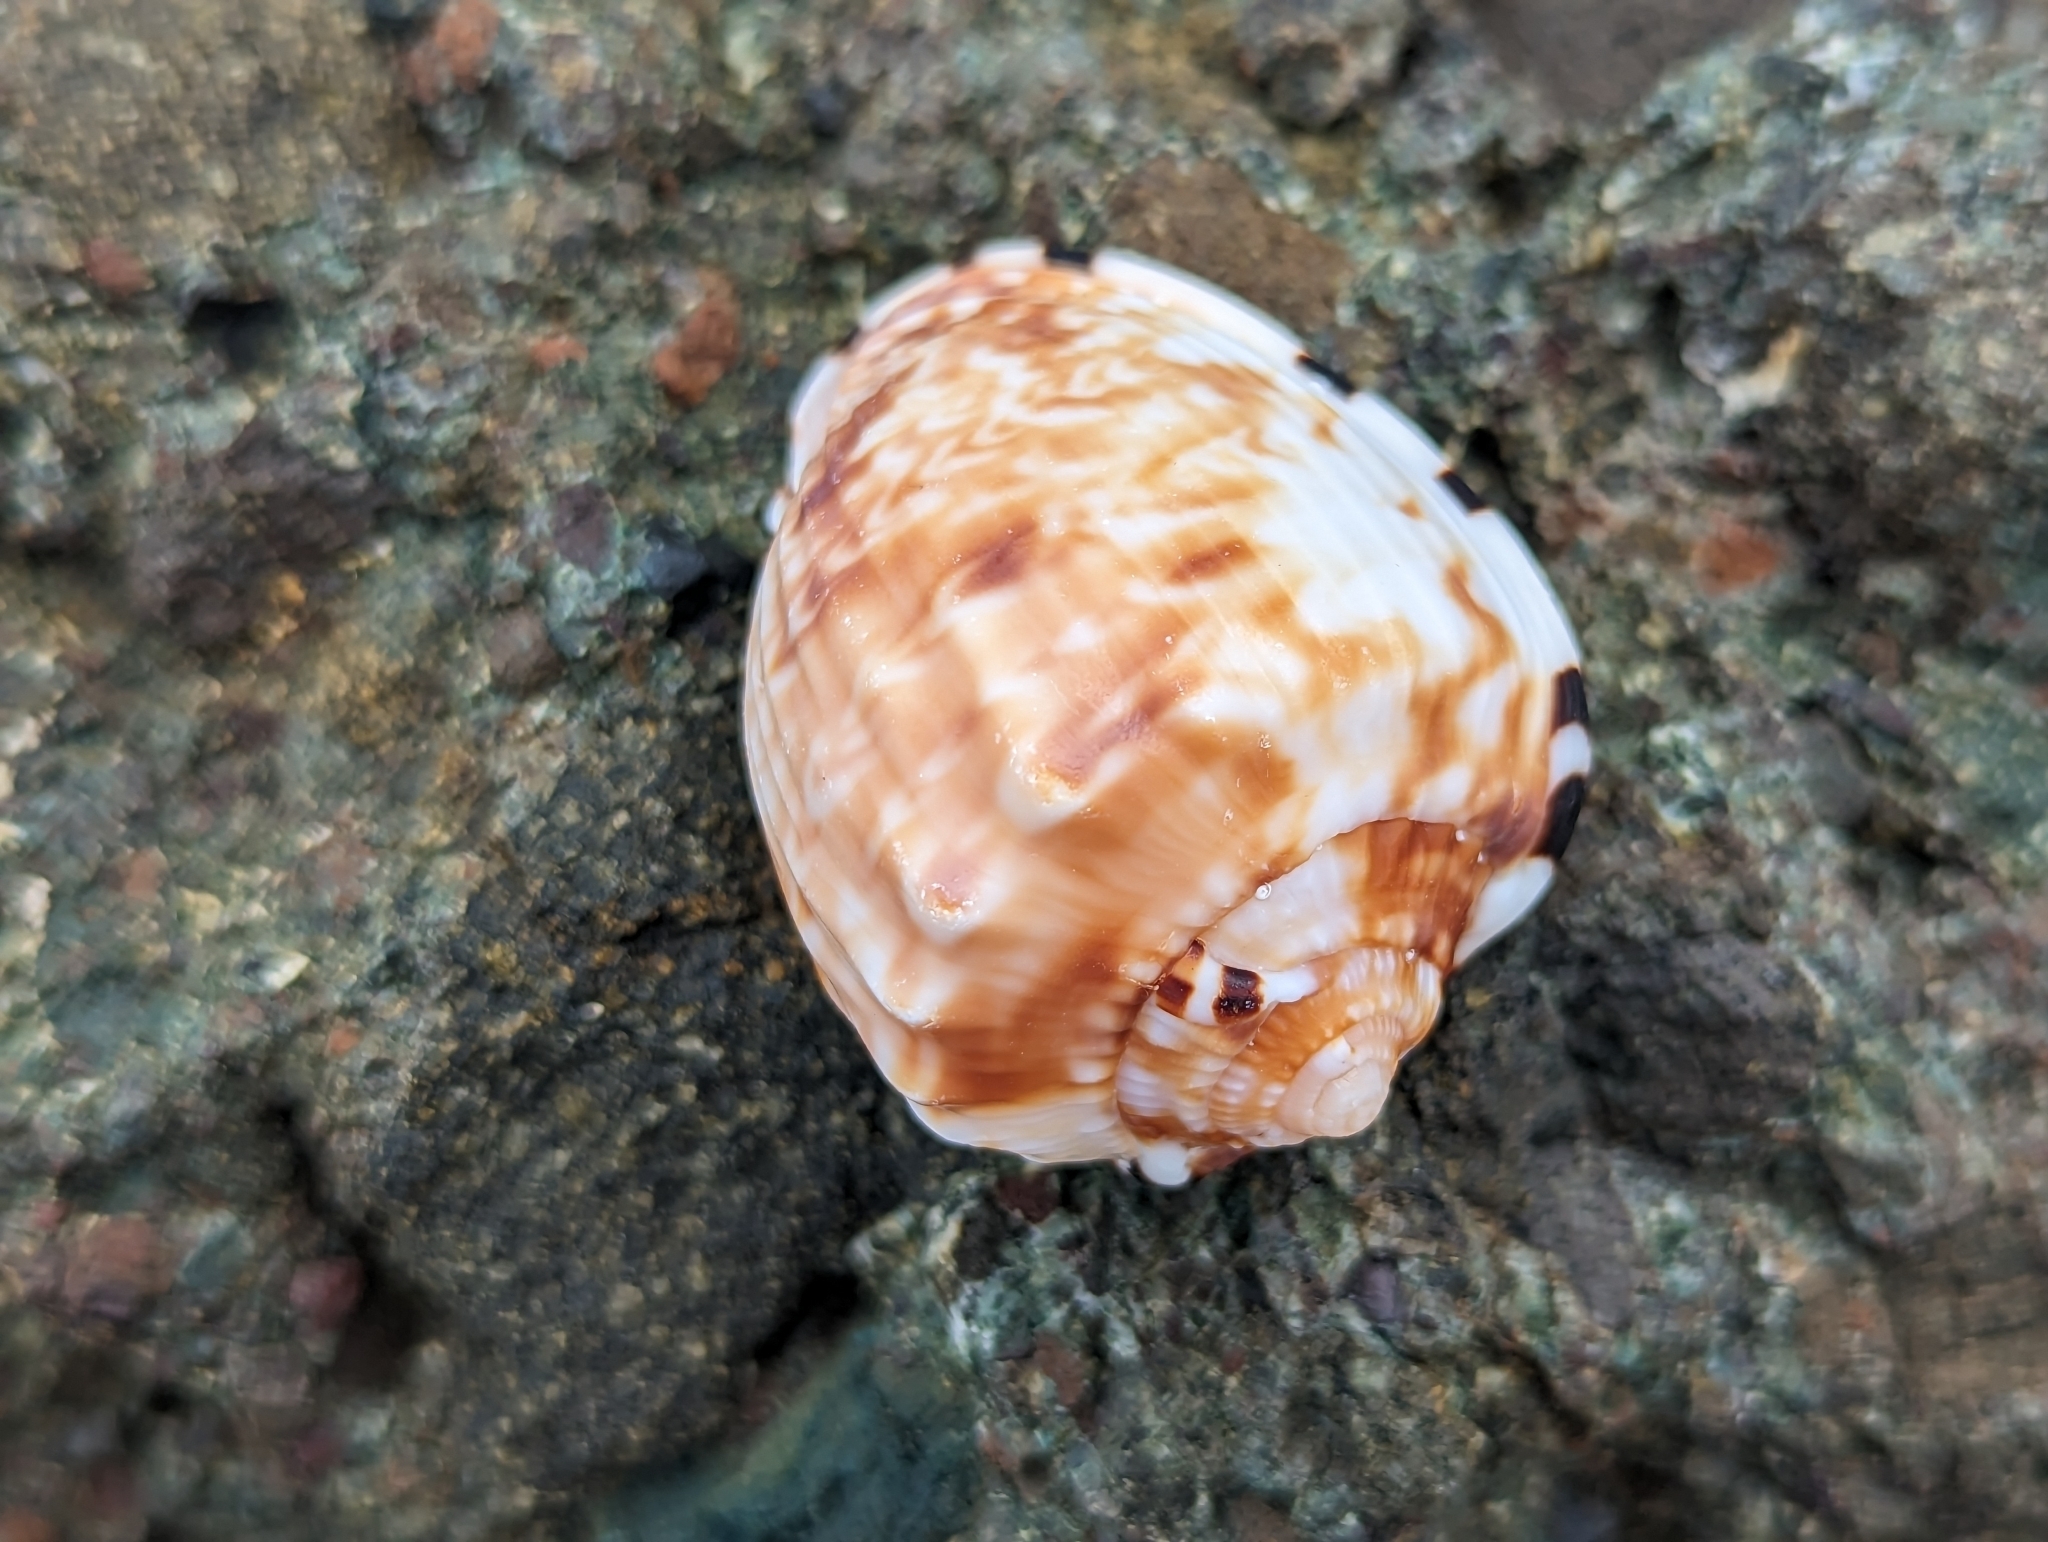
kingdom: Animalia
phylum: Mollusca
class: Gastropoda
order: Littorinimorpha
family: Cassidae
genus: Cassis
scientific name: Cassis flammea
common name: Flame helmet
